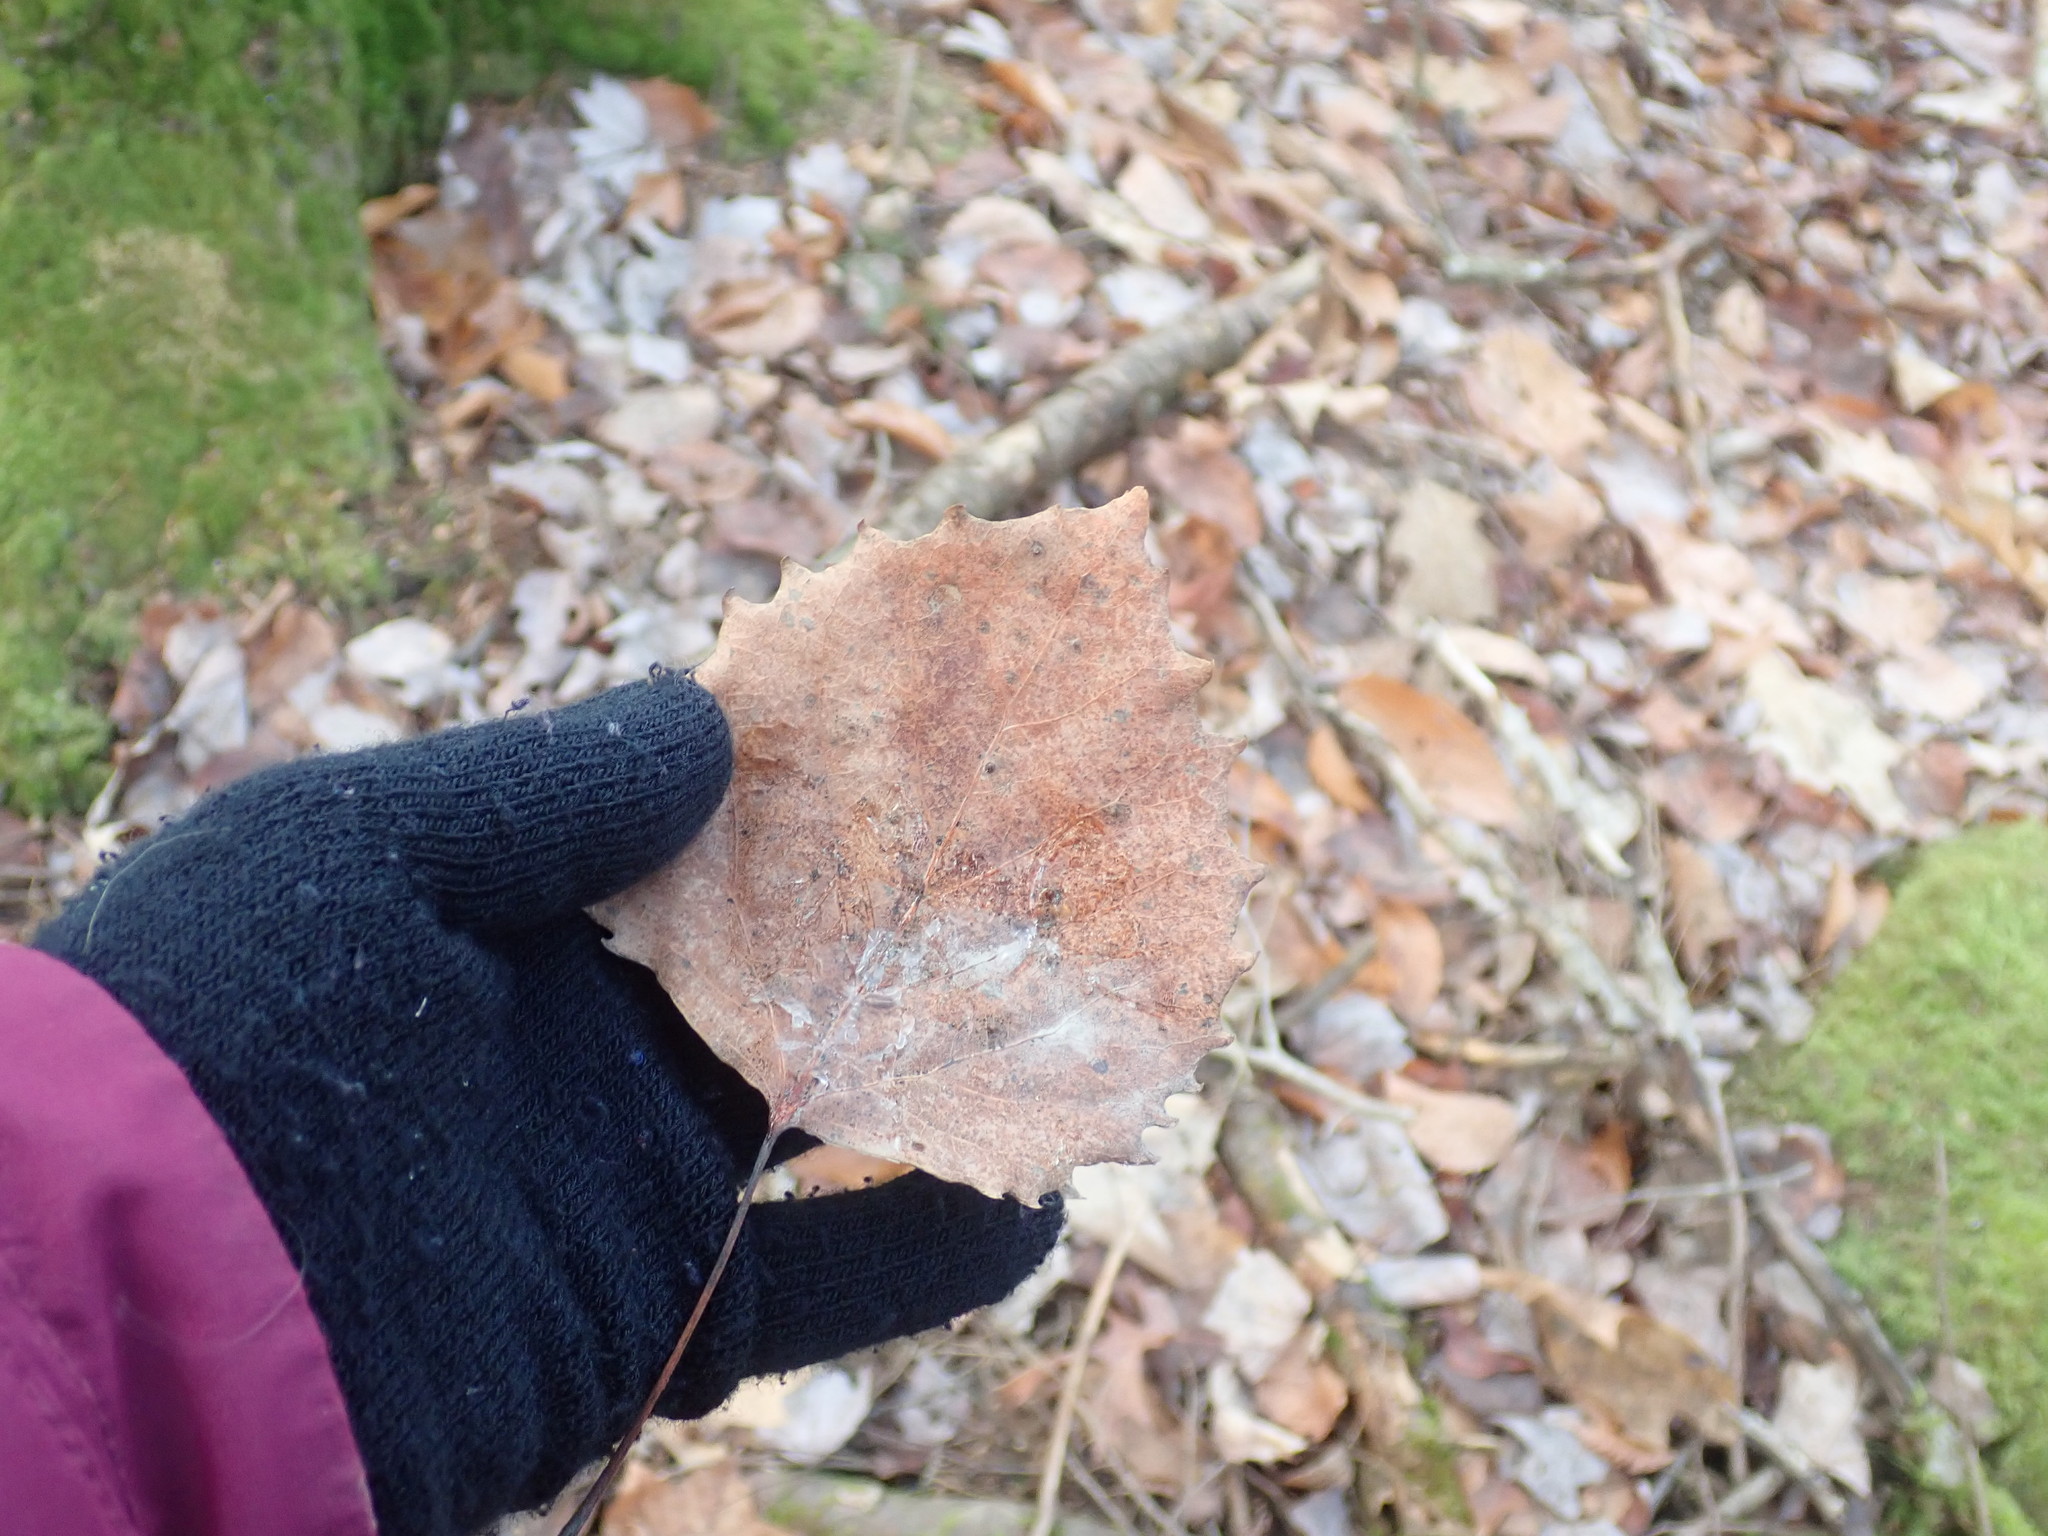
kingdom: Plantae
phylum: Tracheophyta
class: Magnoliopsida
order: Malpighiales
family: Salicaceae
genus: Populus
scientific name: Populus grandidentata
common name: Bigtooth aspen
